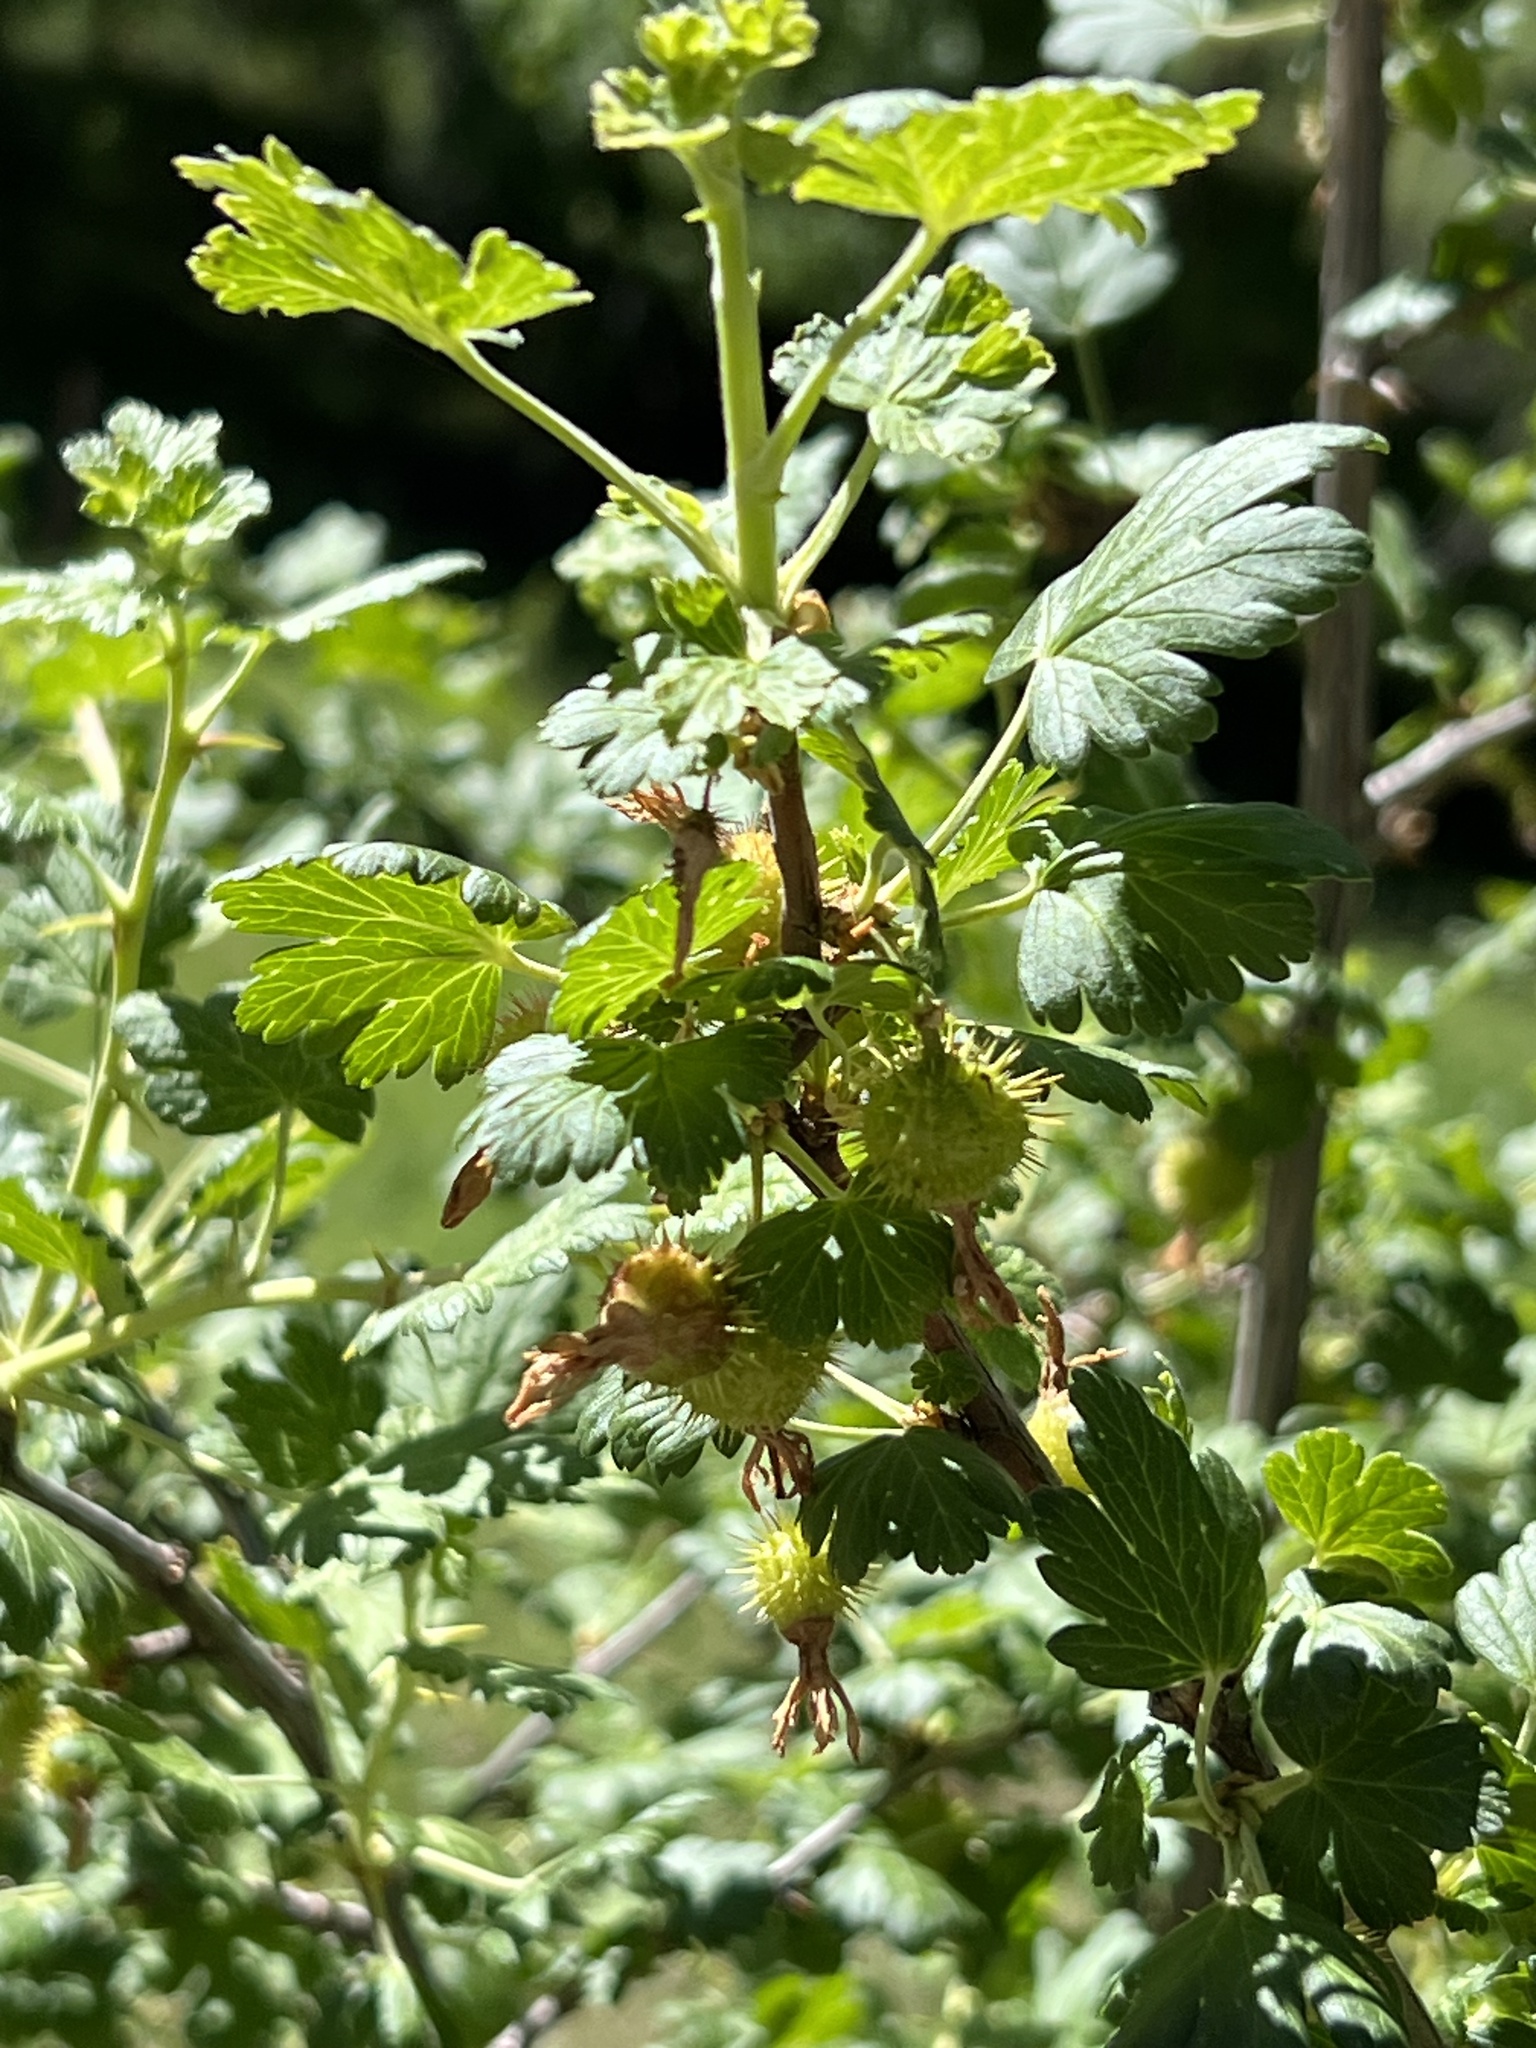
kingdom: Plantae
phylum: Tracheophyta
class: Magnoliopsida
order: Saxifragales
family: Grossulariaceae
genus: Ribes
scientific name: Ribes pinetorum
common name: Orange gooseberry
